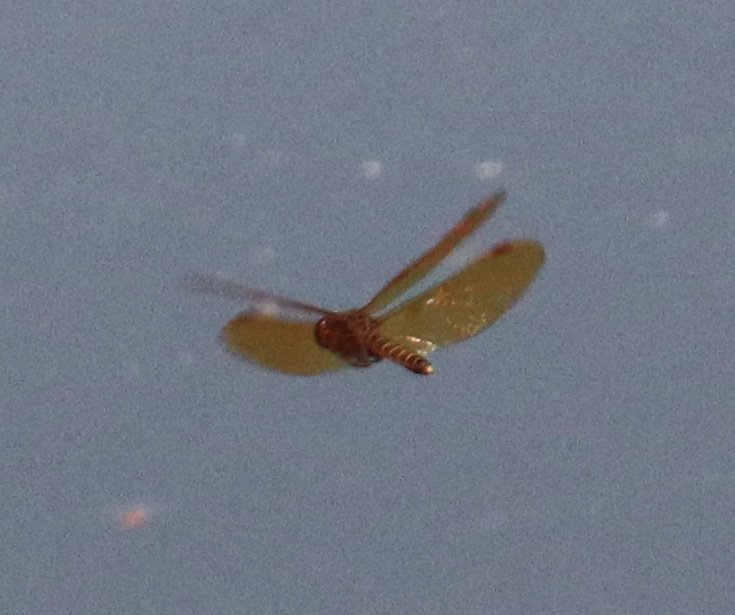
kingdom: Animalia
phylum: Arthropoda
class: Insecta
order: Odonata
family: Libellulidae
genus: Perithemis
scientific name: Perithemis tenera
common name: Eastern amberwing
